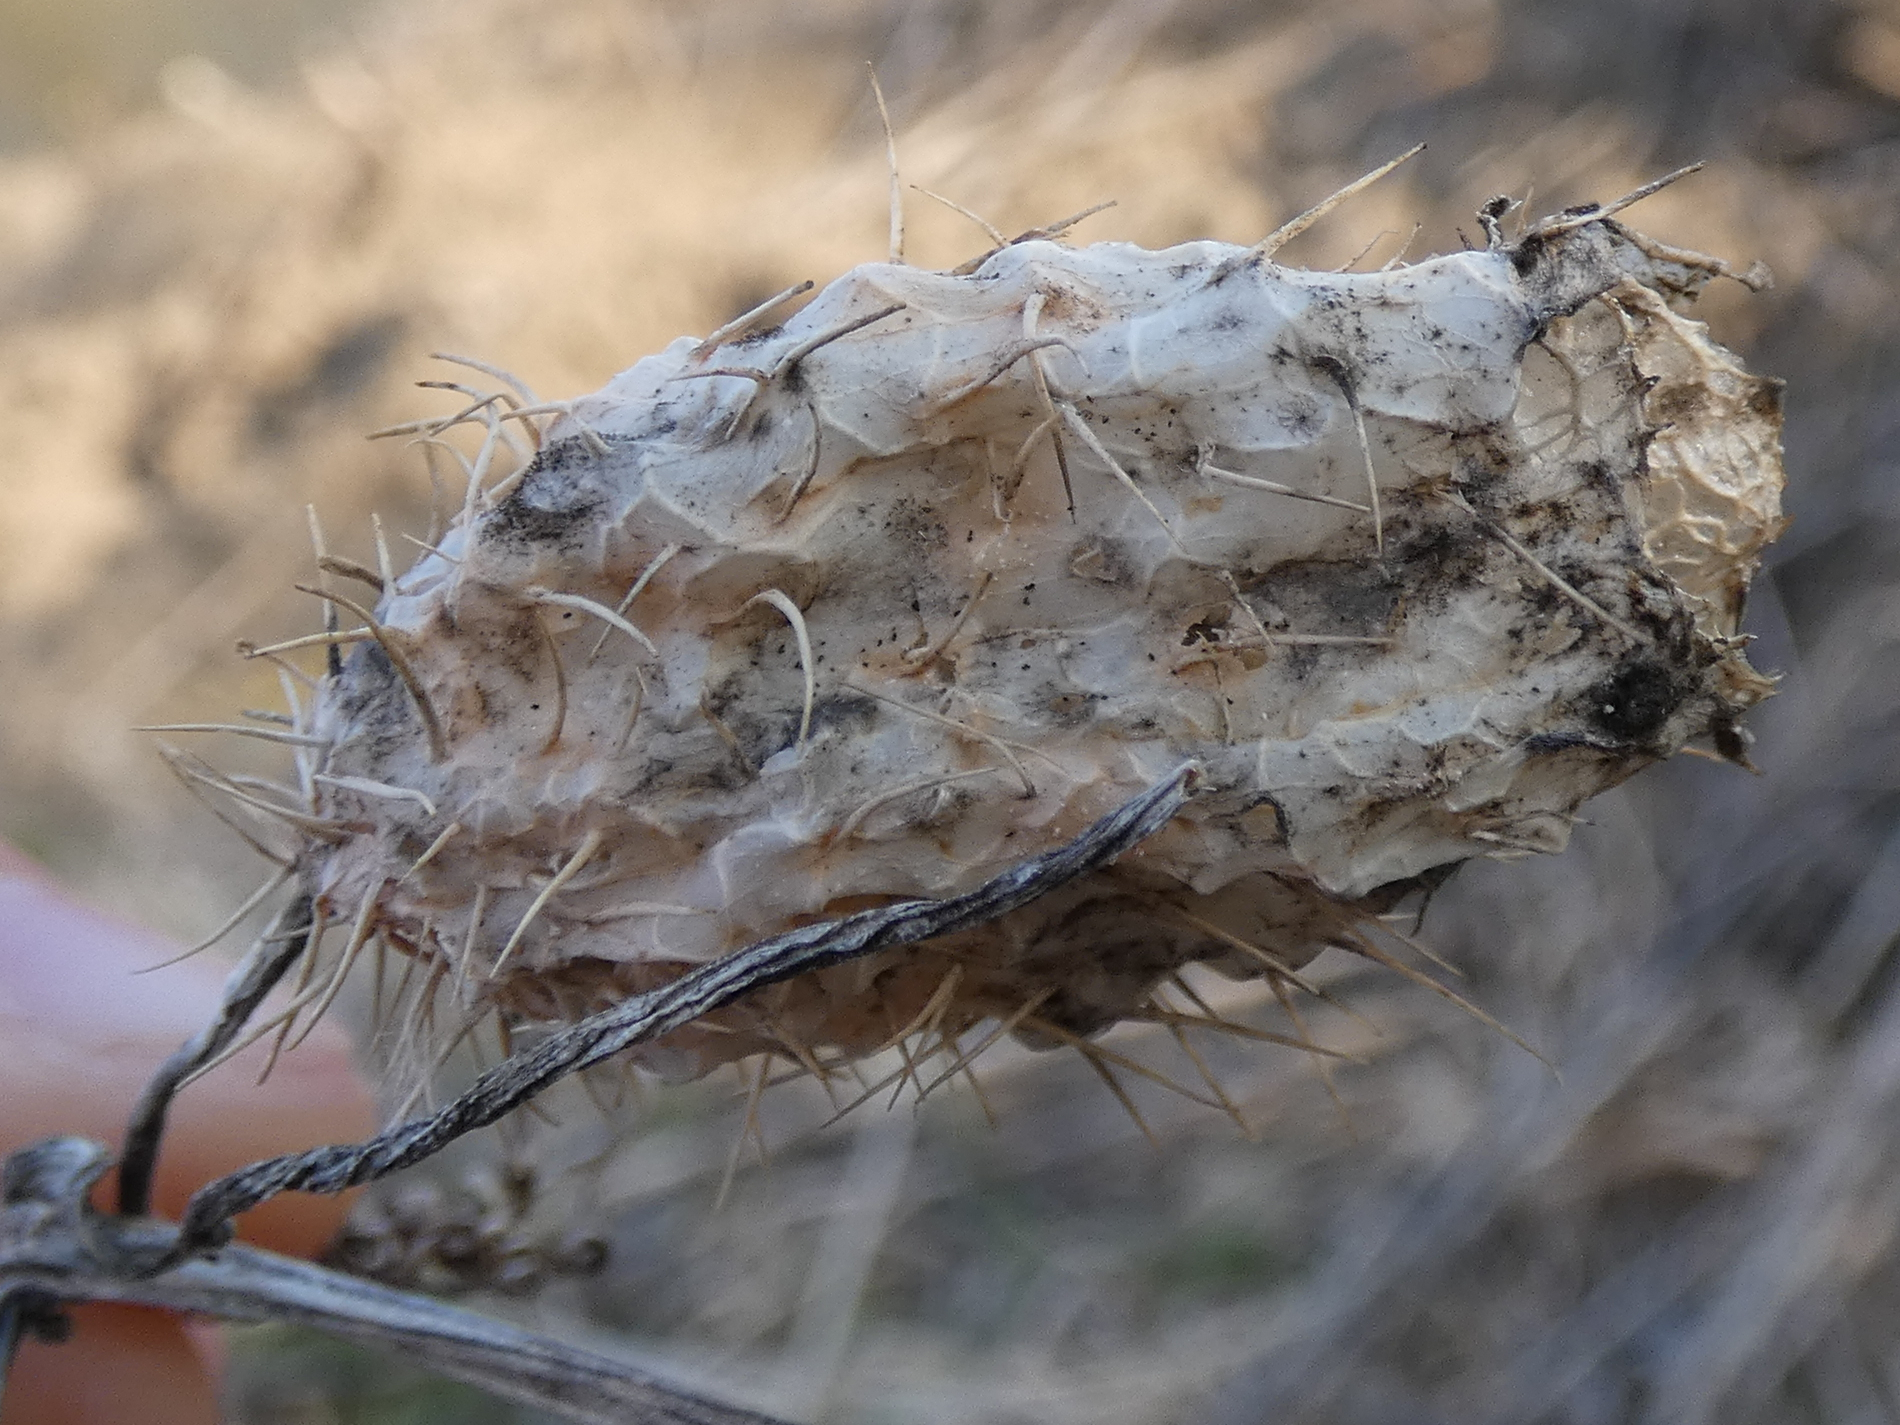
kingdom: Plantae
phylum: Tracheophyta
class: Magnoliopsida
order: Cucurbitales
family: Cucurbitaceae
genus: Echinocystis
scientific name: Echinocystis lobata
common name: Wild cucumber
